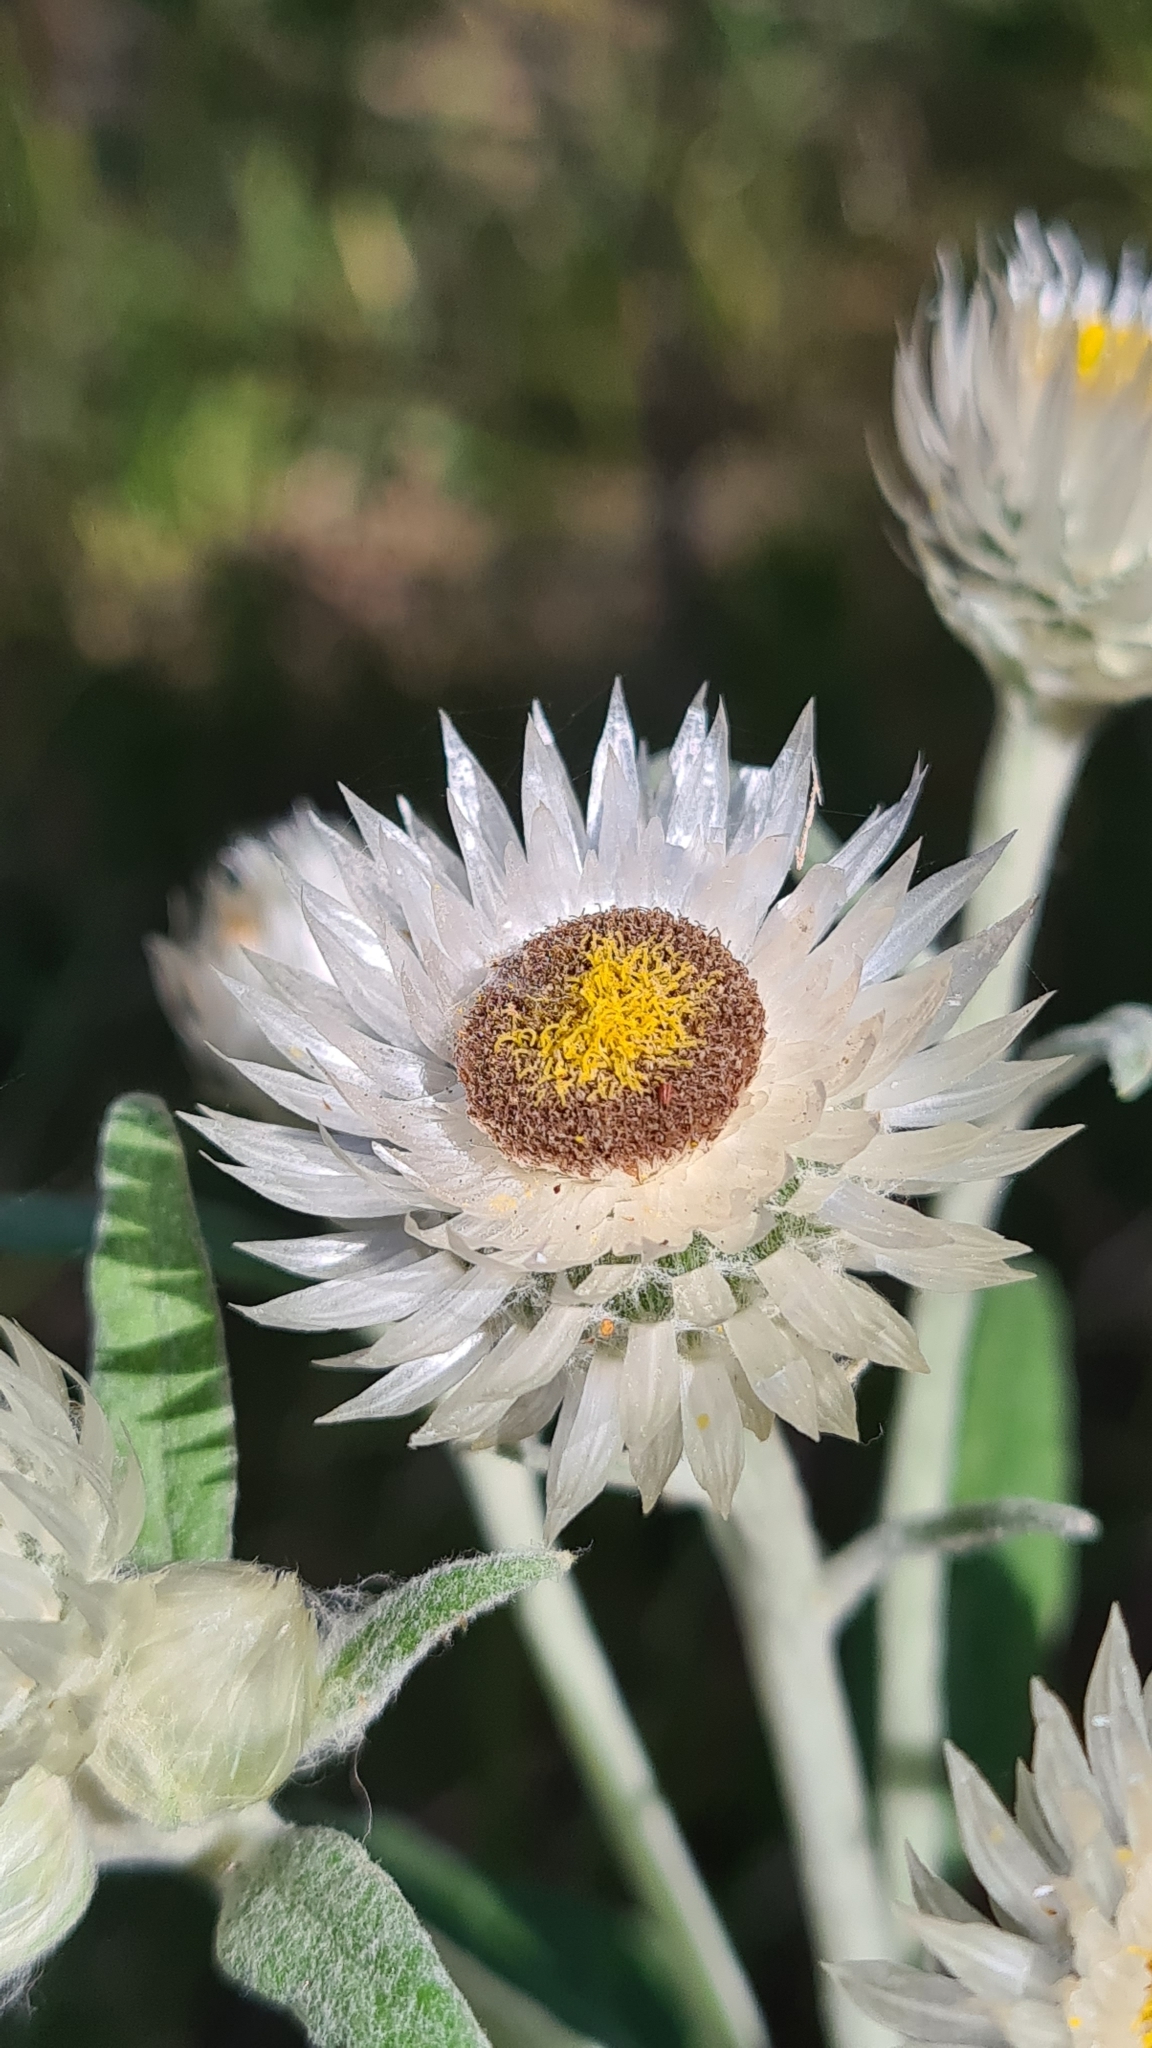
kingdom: Plantae
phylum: Tracheophyta
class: Magnoliopsida
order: Asterales
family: Asteraceae
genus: Leucozoma
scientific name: Leucozoma elatum
